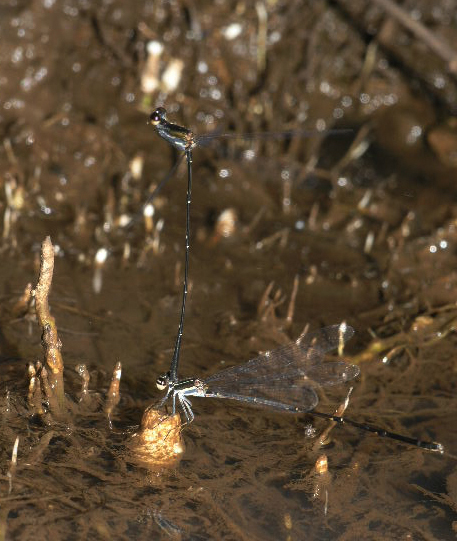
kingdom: Animalia
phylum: Arthropoda
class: Insecta
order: Odonata
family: Platycnemididae
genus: Prodasineura
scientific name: Prodasineura autumnalis
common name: Black threadtail
